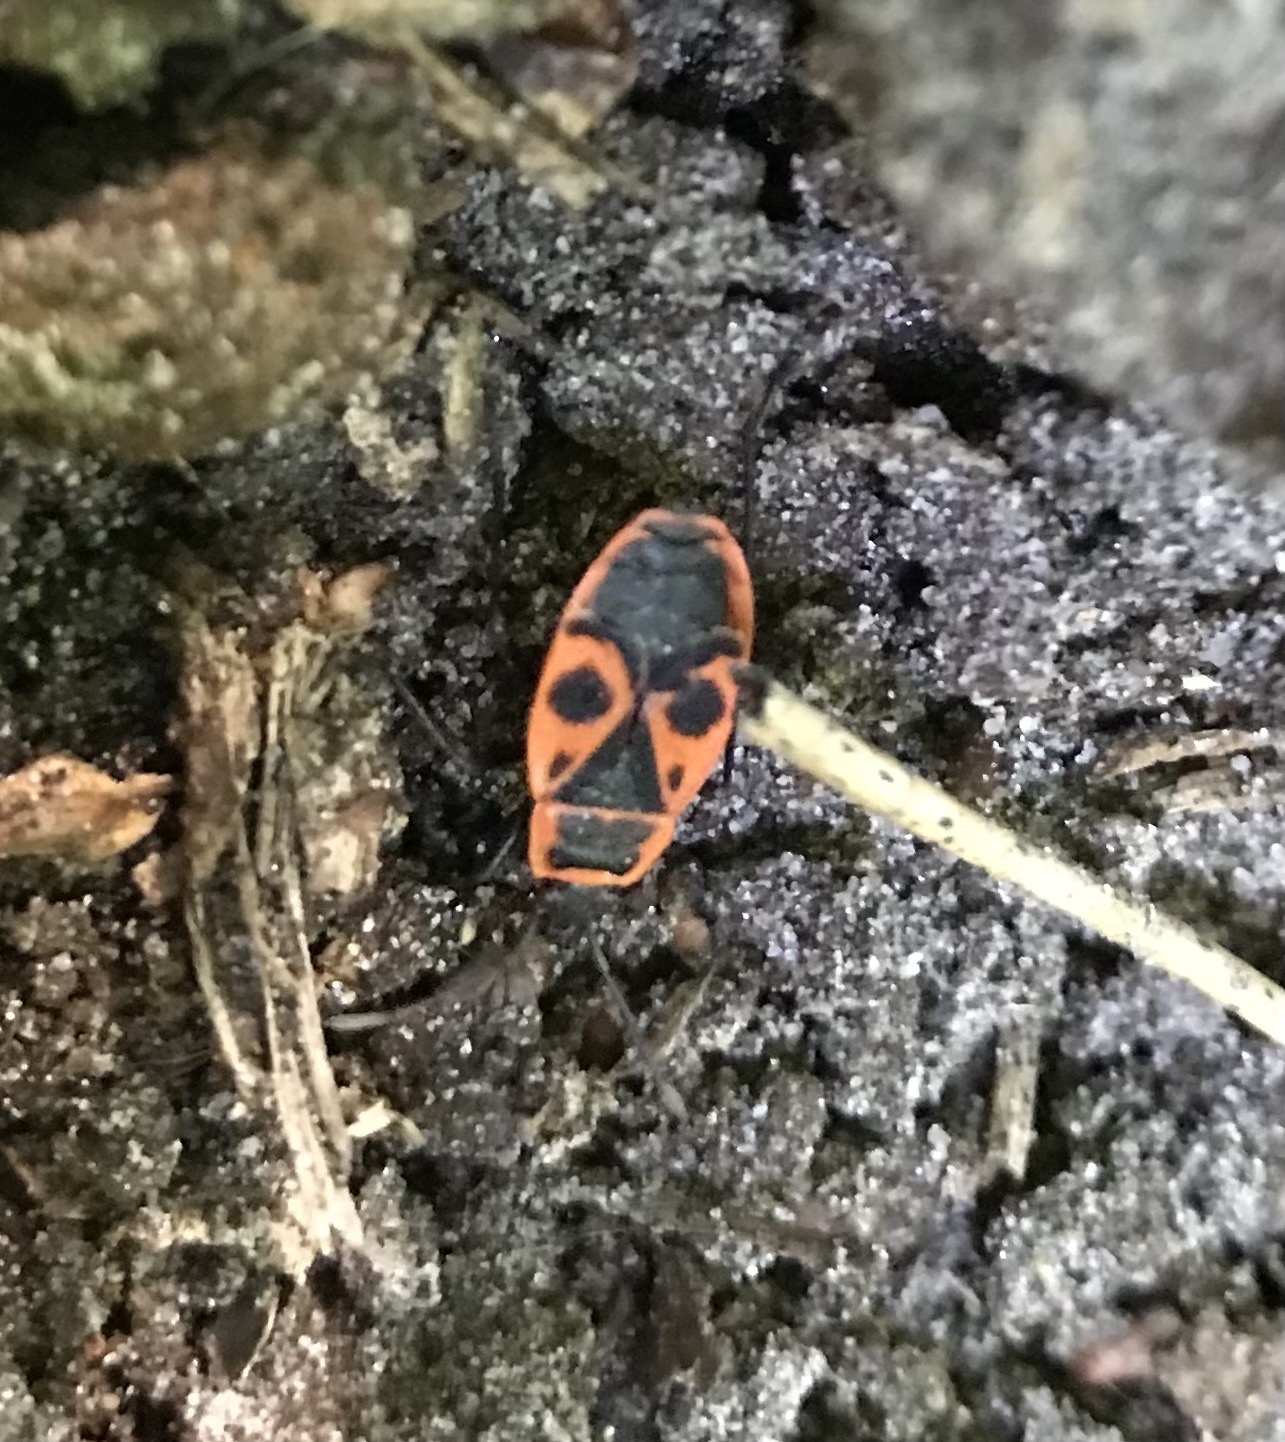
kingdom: Animalia
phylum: Arthropoda
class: Insecta
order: Hemiptera
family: Pyrrhocoridae
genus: Pyrrhocoris
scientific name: Pyrrhocoris apterus
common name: Firebug
